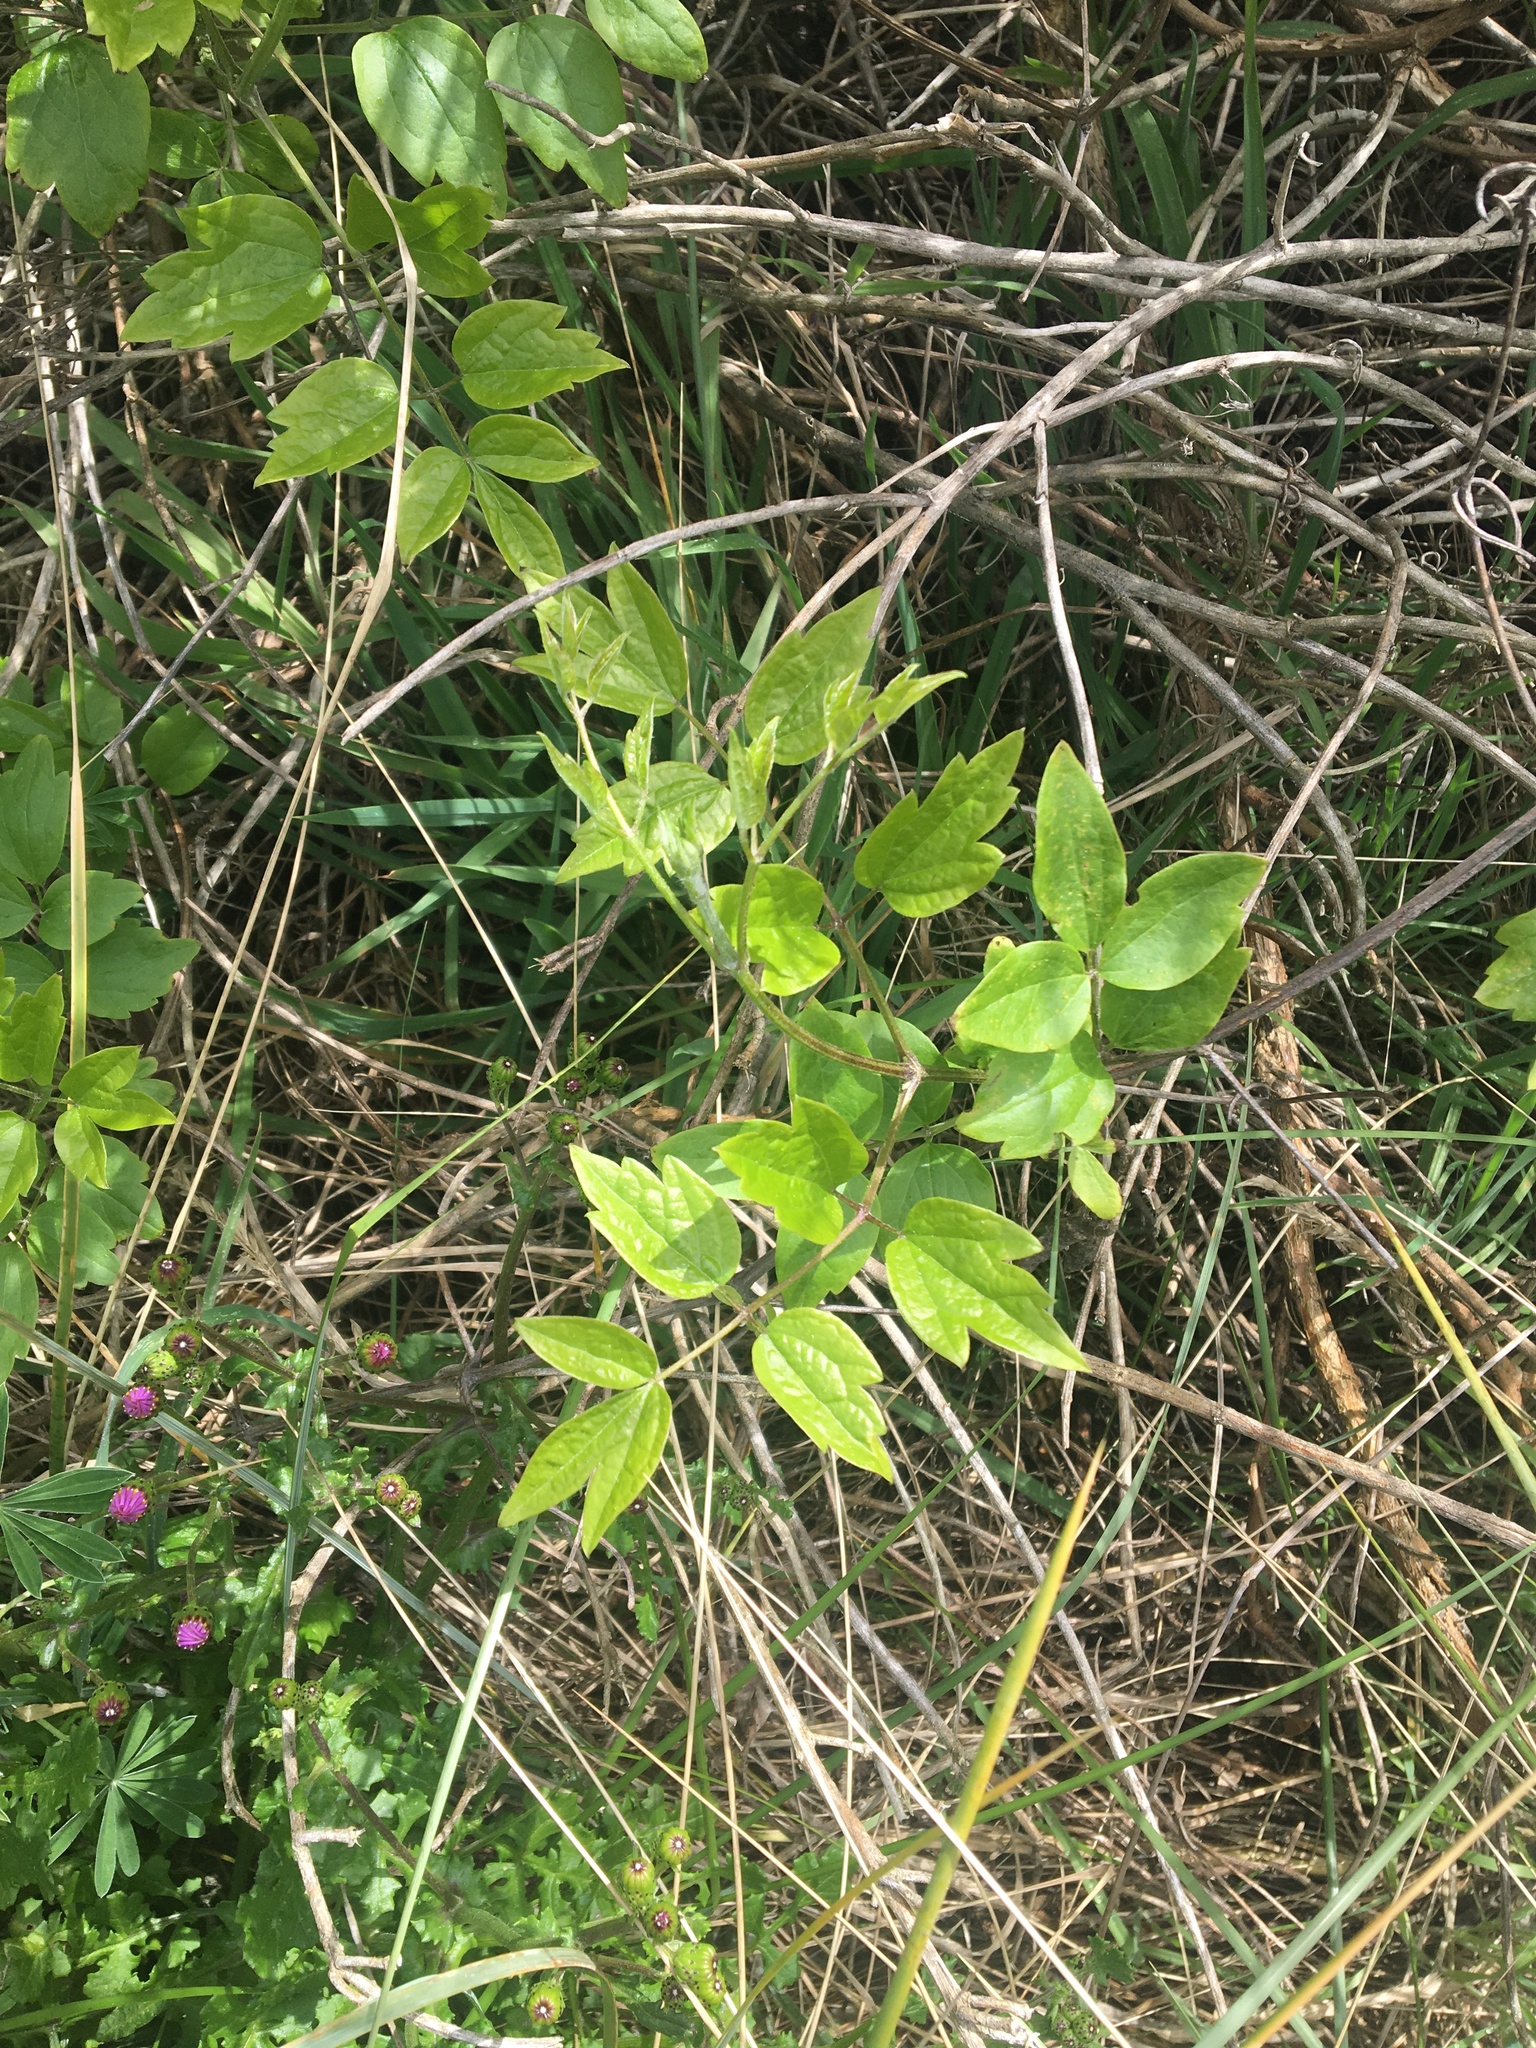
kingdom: Plantae
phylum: Tracheophyta
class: Magnoliopsida
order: Ranunculales
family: Ranunculaceae
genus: Clematis
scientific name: Clematis vitalba
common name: Evergreen clematis
